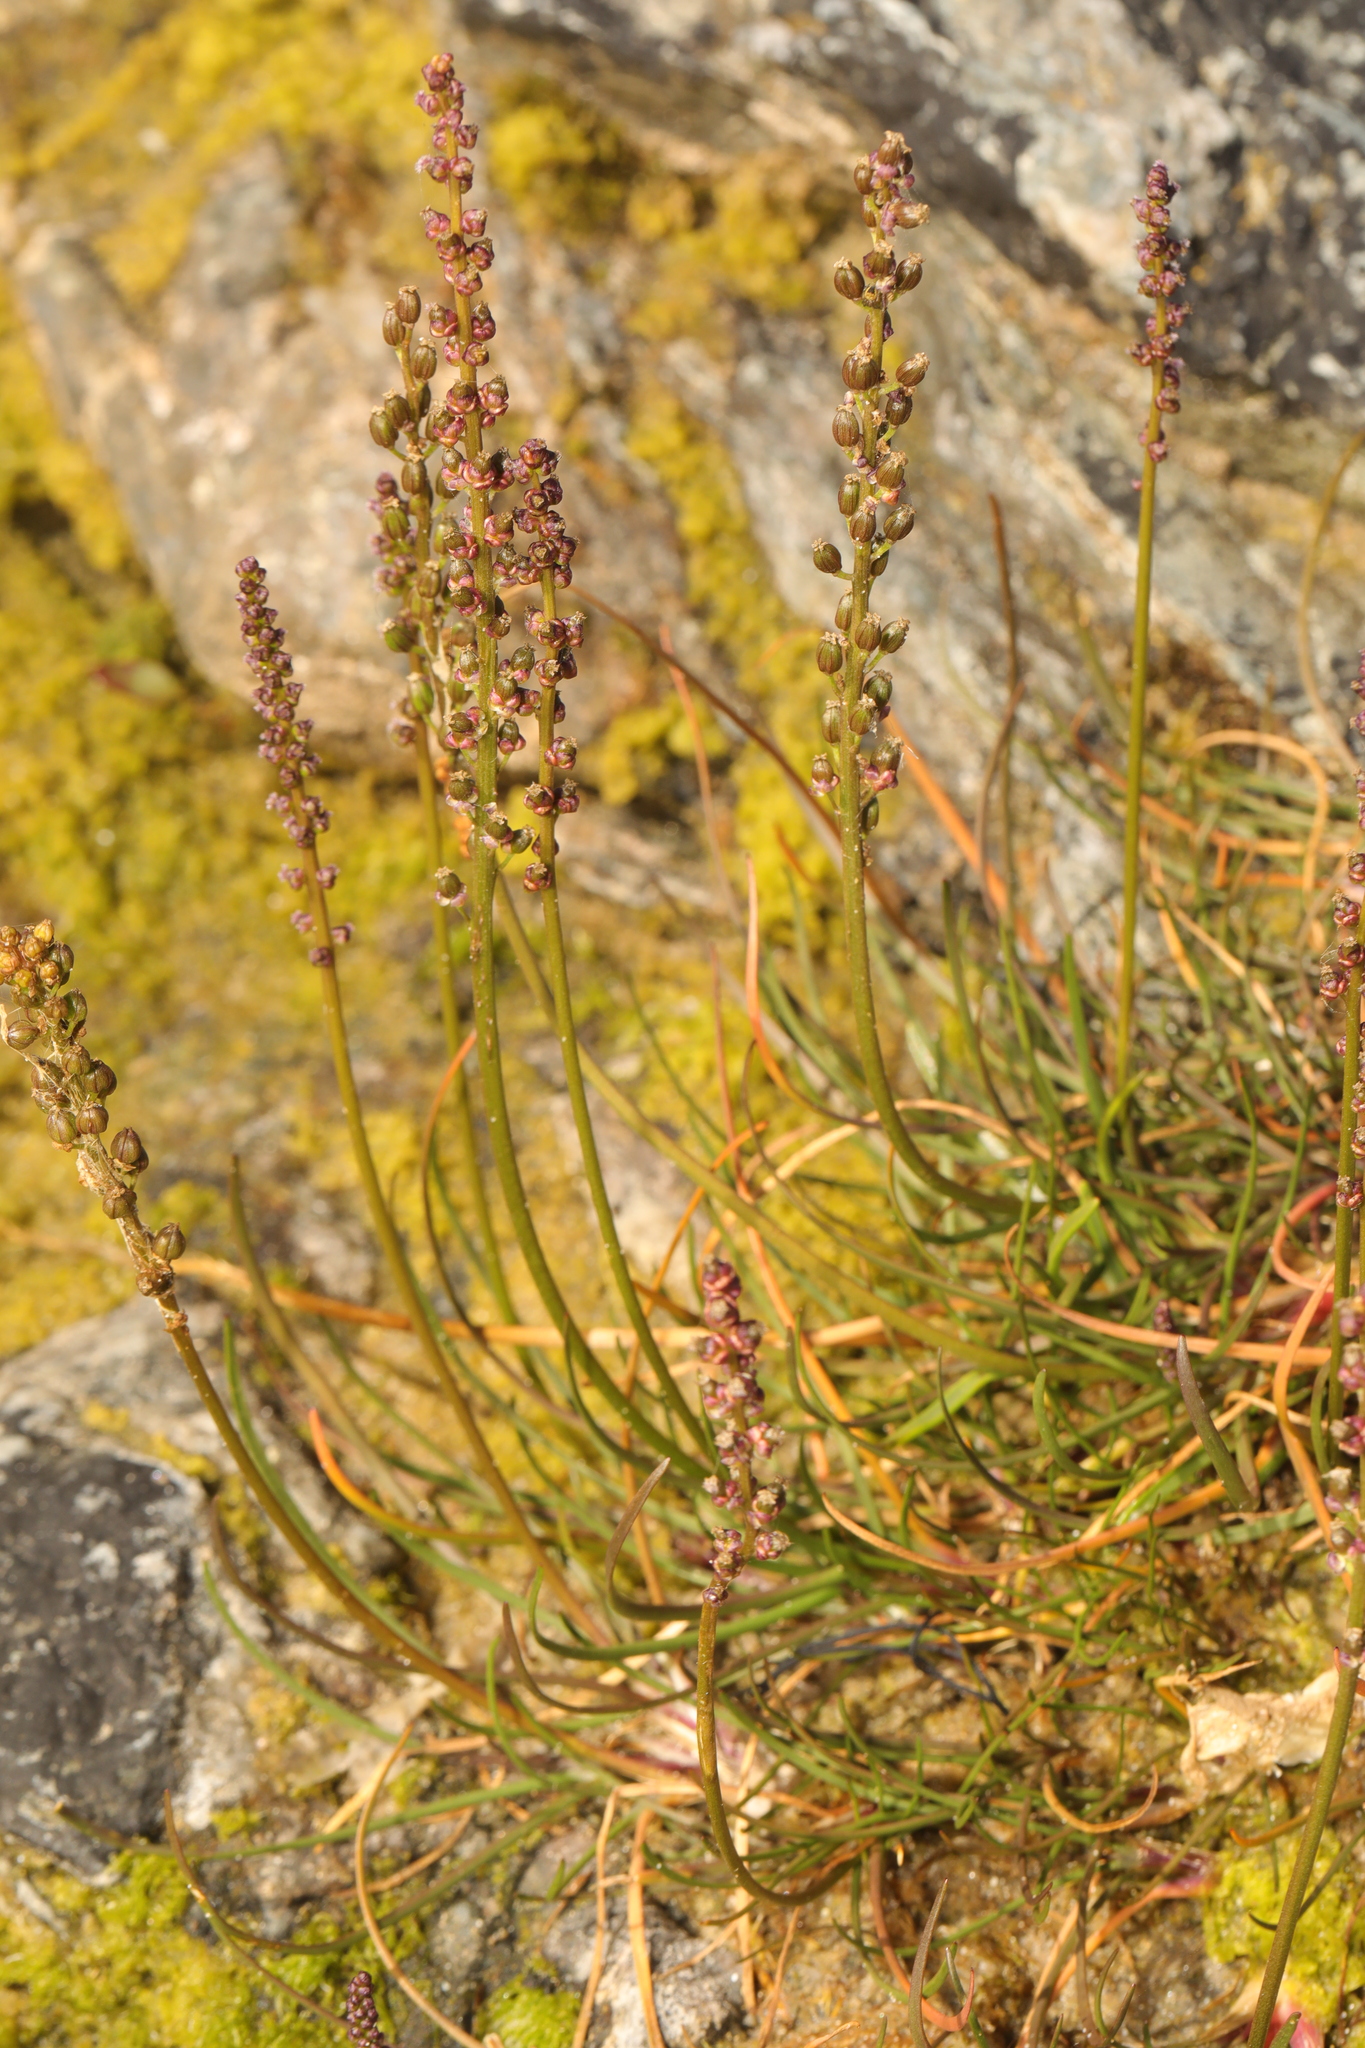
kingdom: Plantae
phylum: Tracheophyta
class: Liliopsida
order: Alismatales
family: Juncaginaceae
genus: Triglochin
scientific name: Triglochin maritima
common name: Sea arrowgrass
